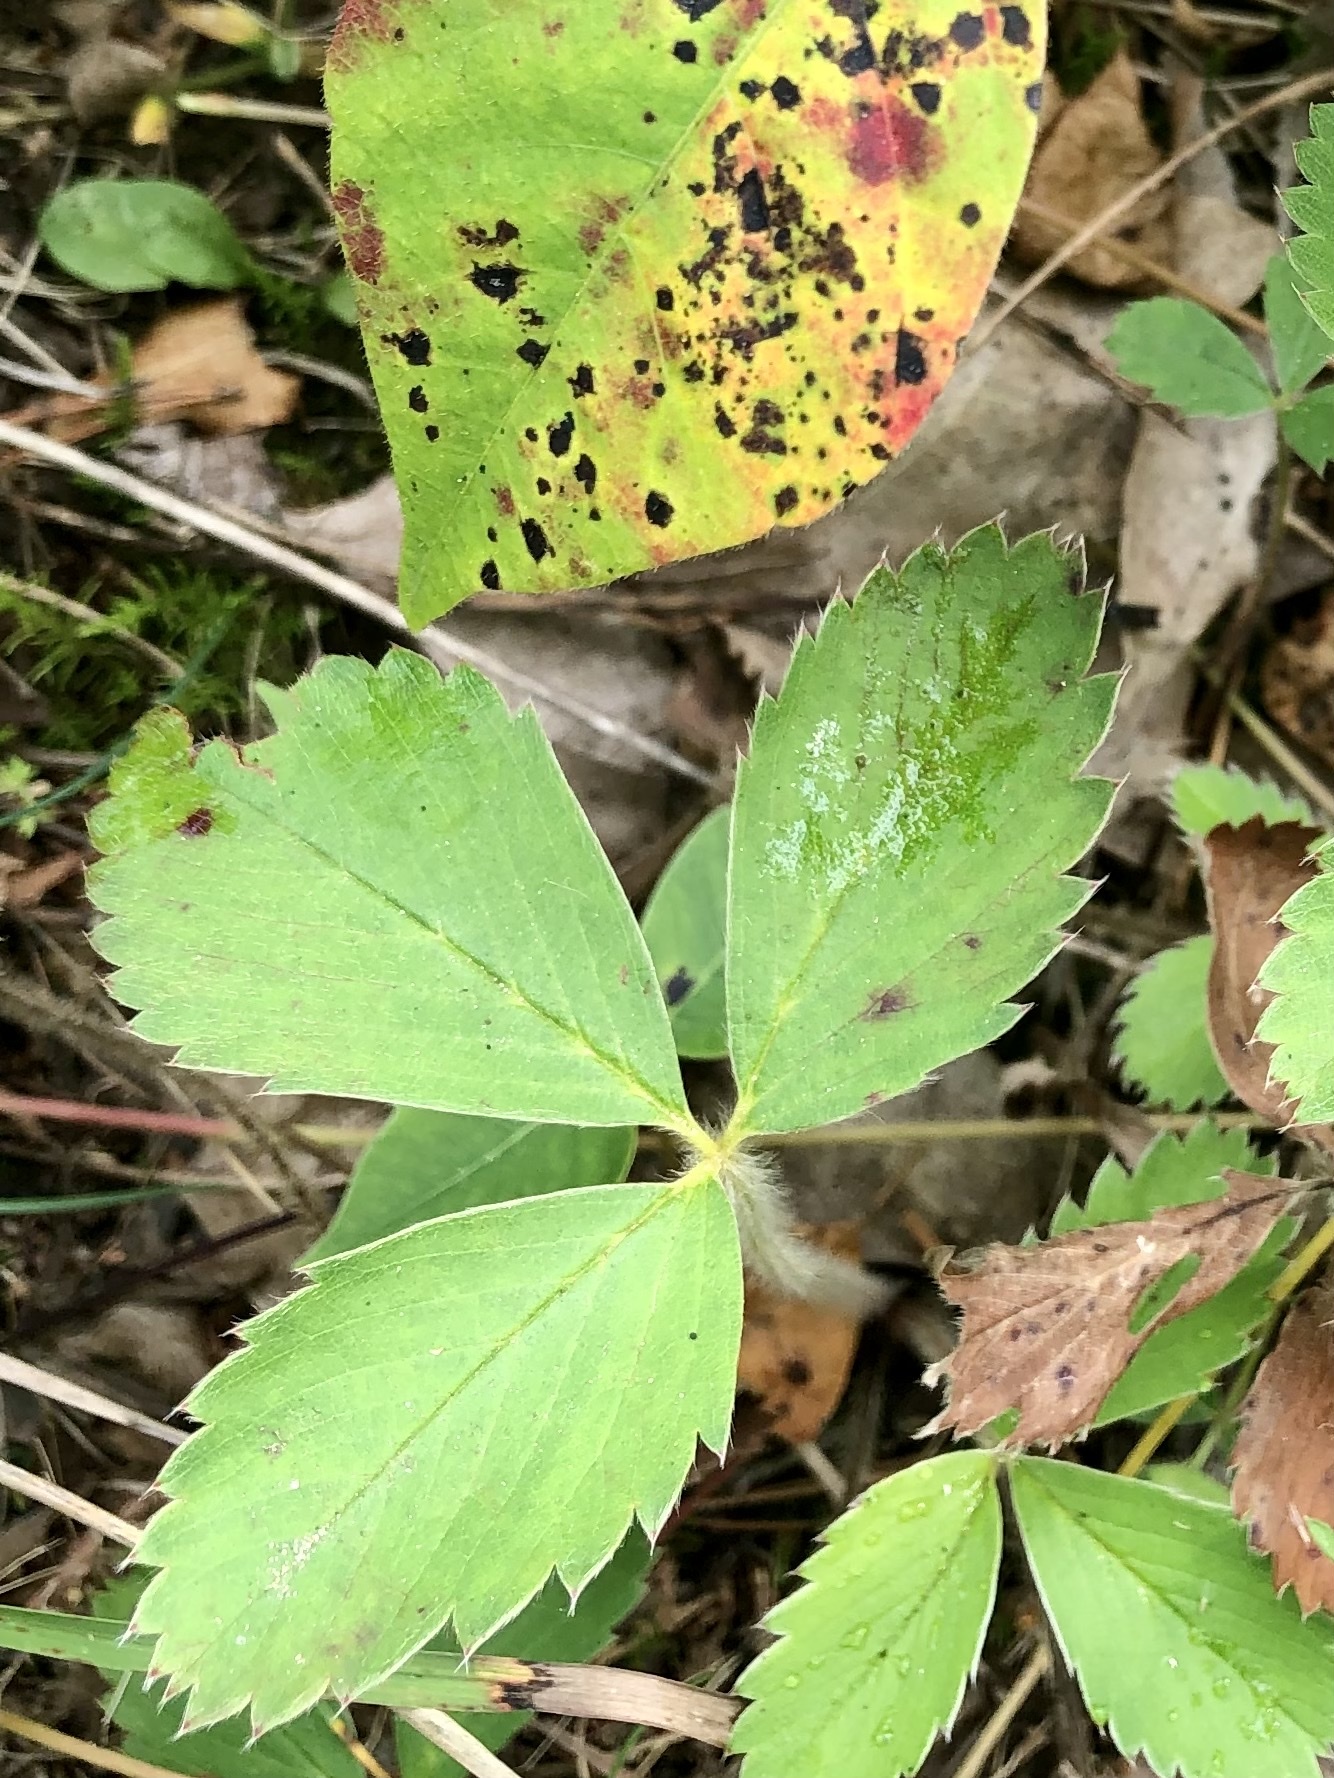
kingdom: Plantae
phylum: Tracheophyta
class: Magnoliopsida
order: Rosales
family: Rosaceae
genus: Fragaria
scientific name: Fragaria virginiana
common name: Thickleaved wild strawberry
